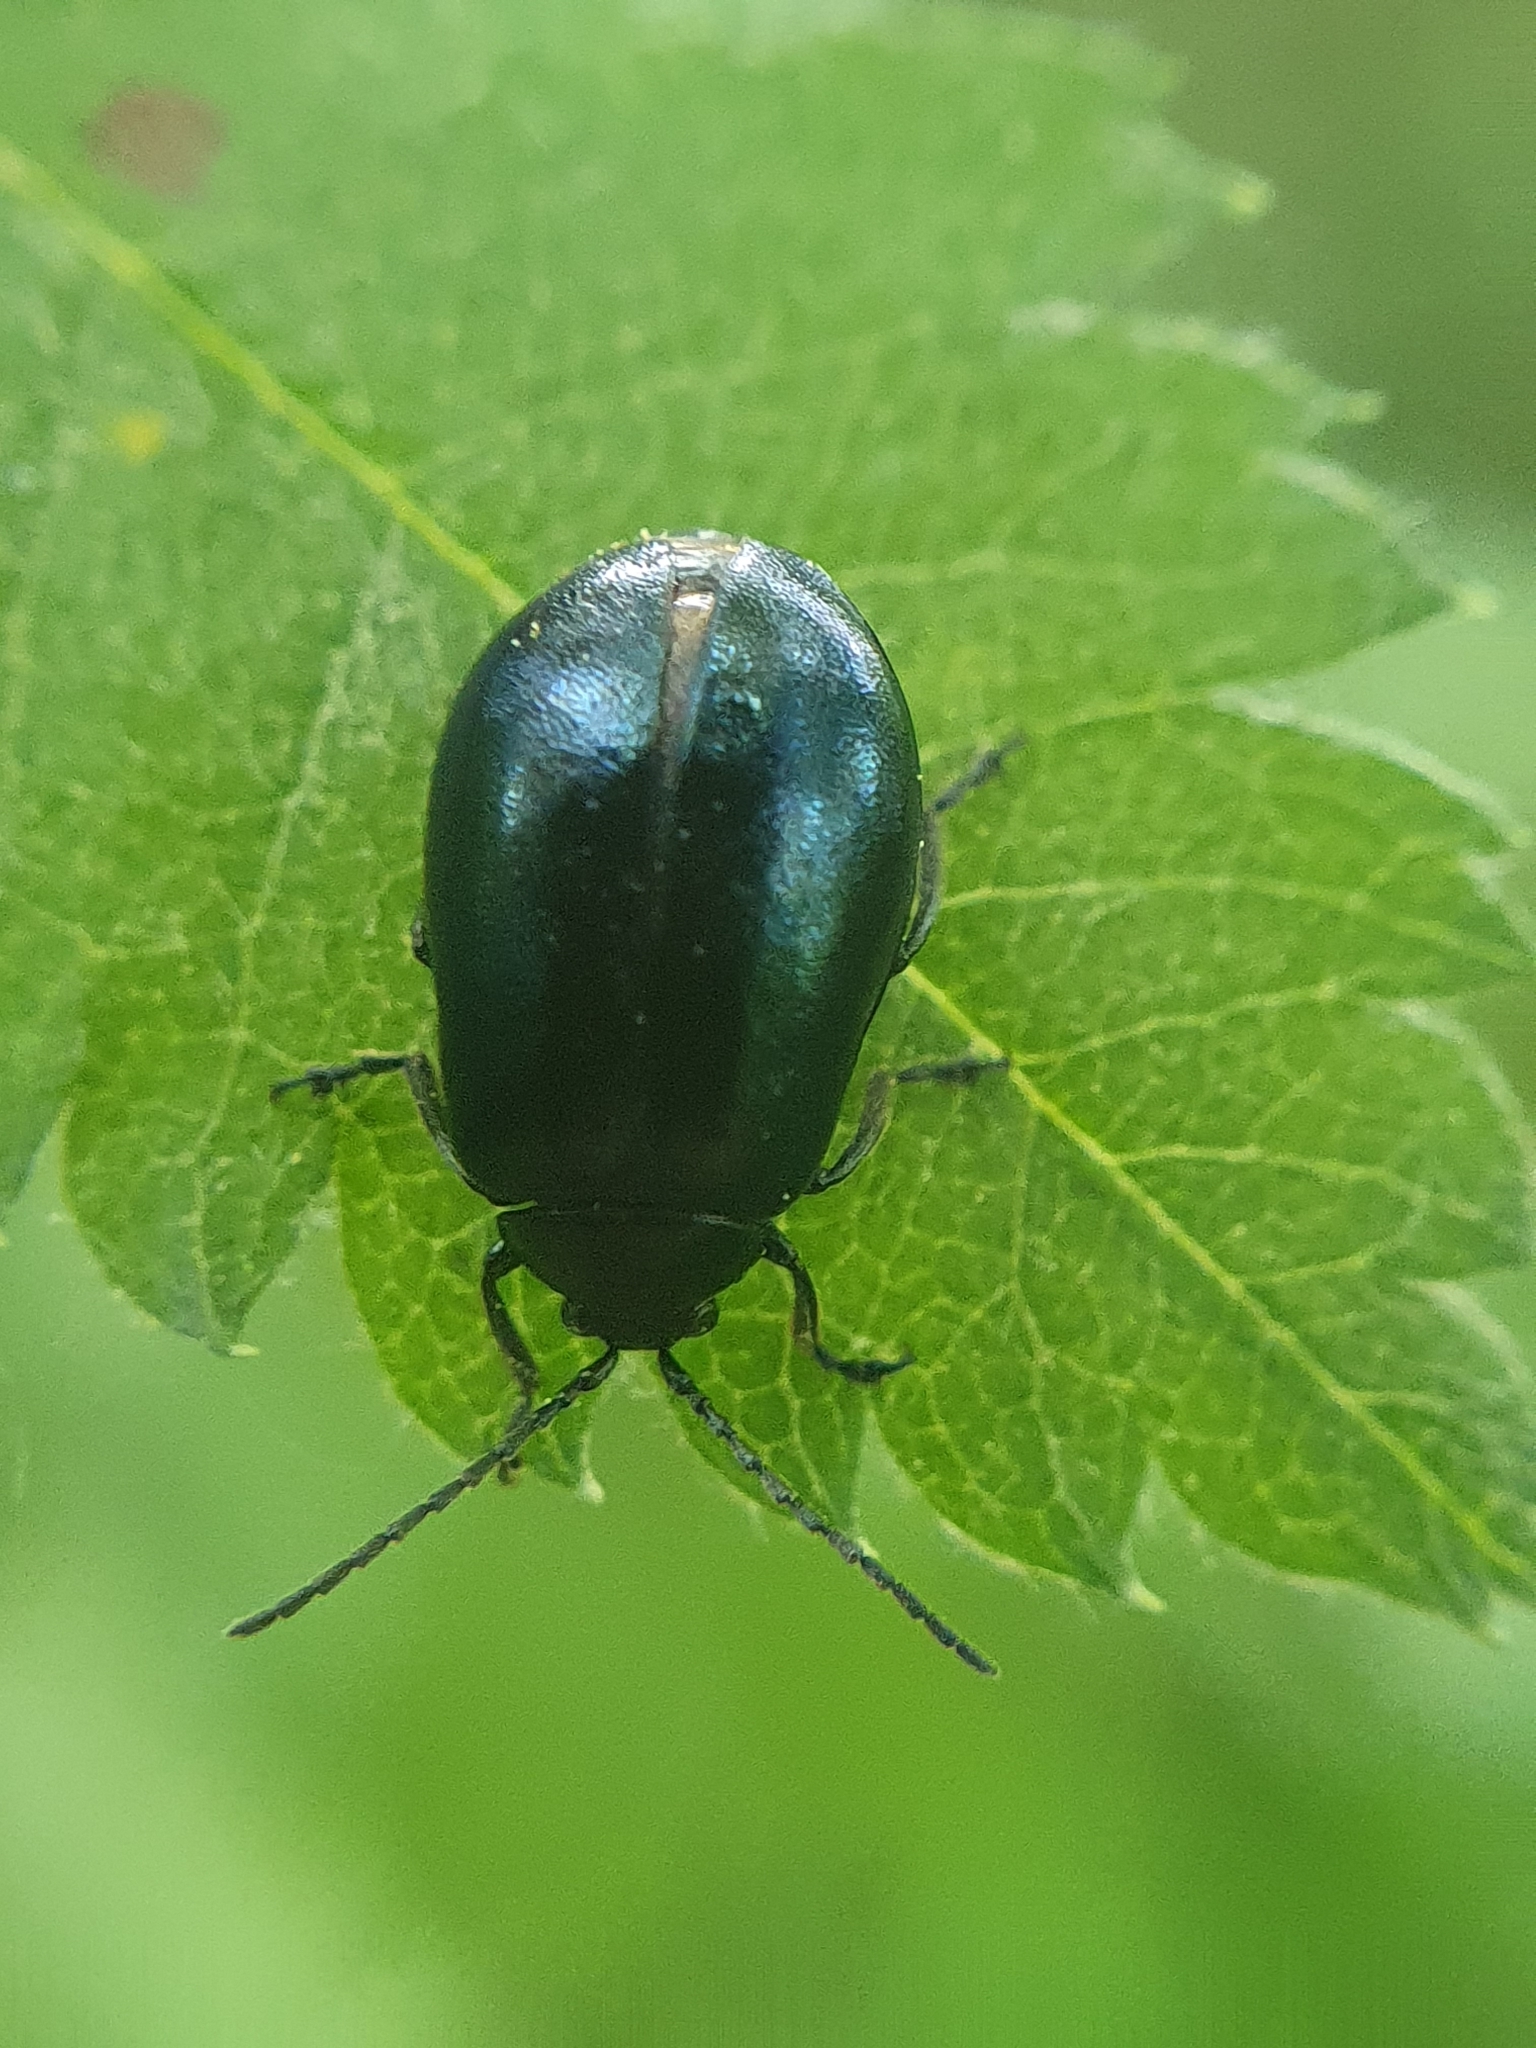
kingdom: Animalia
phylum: Arthropoda
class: Insecta
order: Coleoptera
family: Chrysomelidae
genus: Agelastica
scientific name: Agelastica alni
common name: Alder leaf beetle
